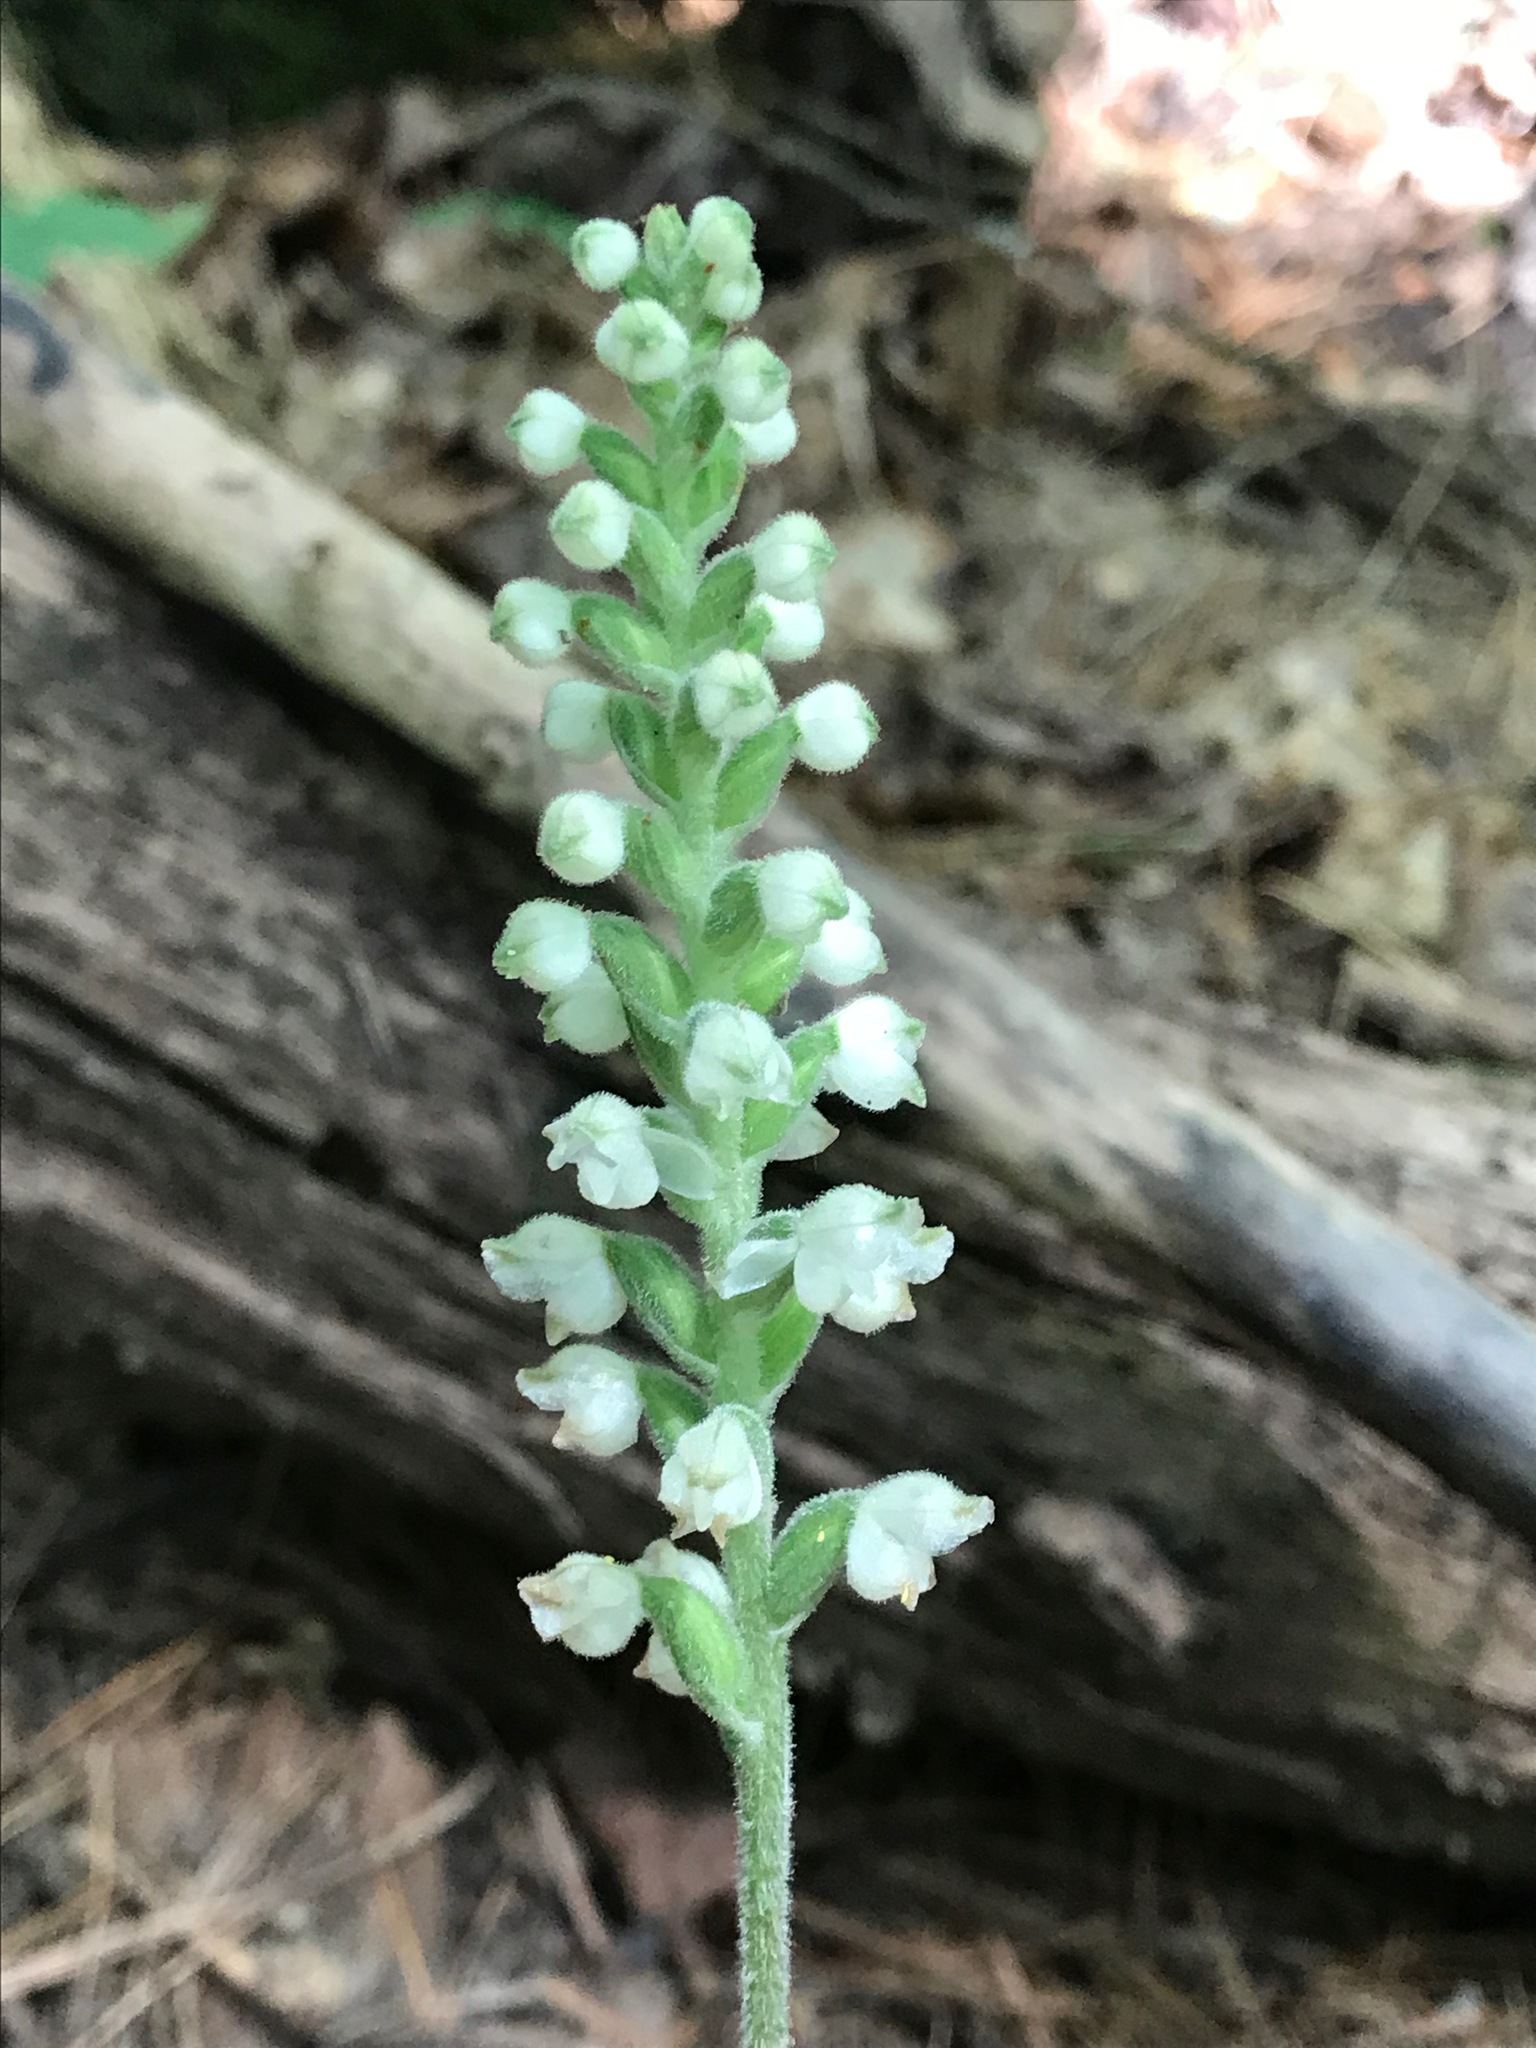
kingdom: Plantae
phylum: Tracheophyta
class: Liliopsida
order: Asparagales
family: Orchidaceae
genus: Goodyera
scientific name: Goodyera pubescens
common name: Downy rattlesnake-plantain
